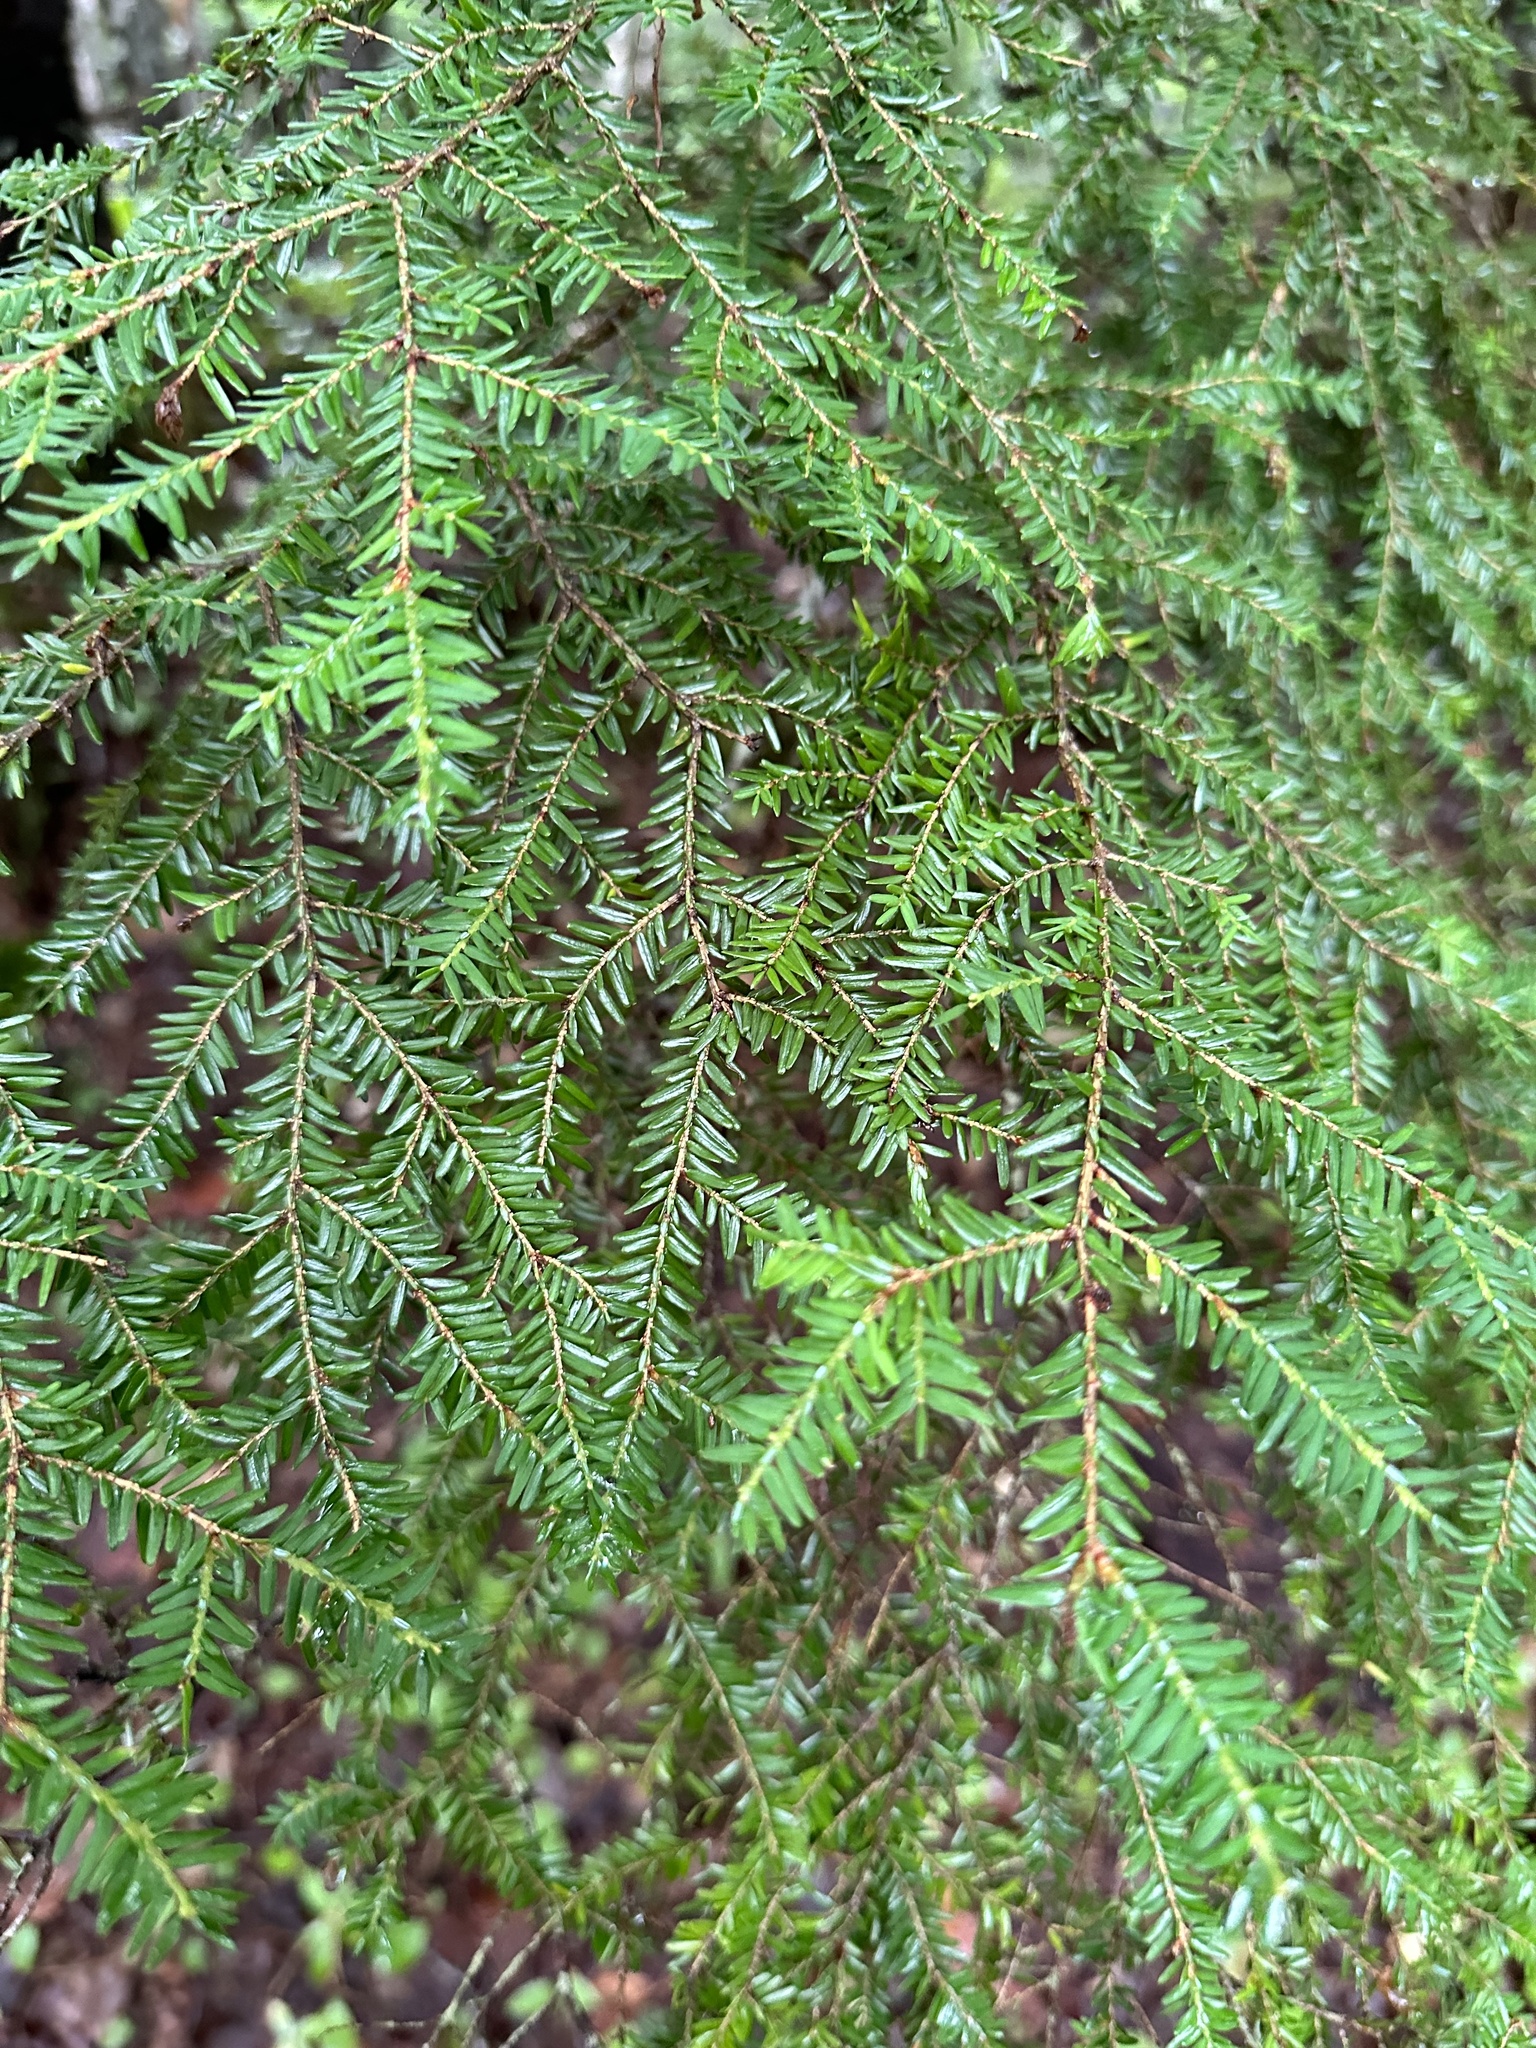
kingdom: Plantae
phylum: Tracheophyta
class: Pinopsida
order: Pinales
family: Pinaceae
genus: Tsuga
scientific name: Tsuga canadensis
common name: Eastern hemlock
